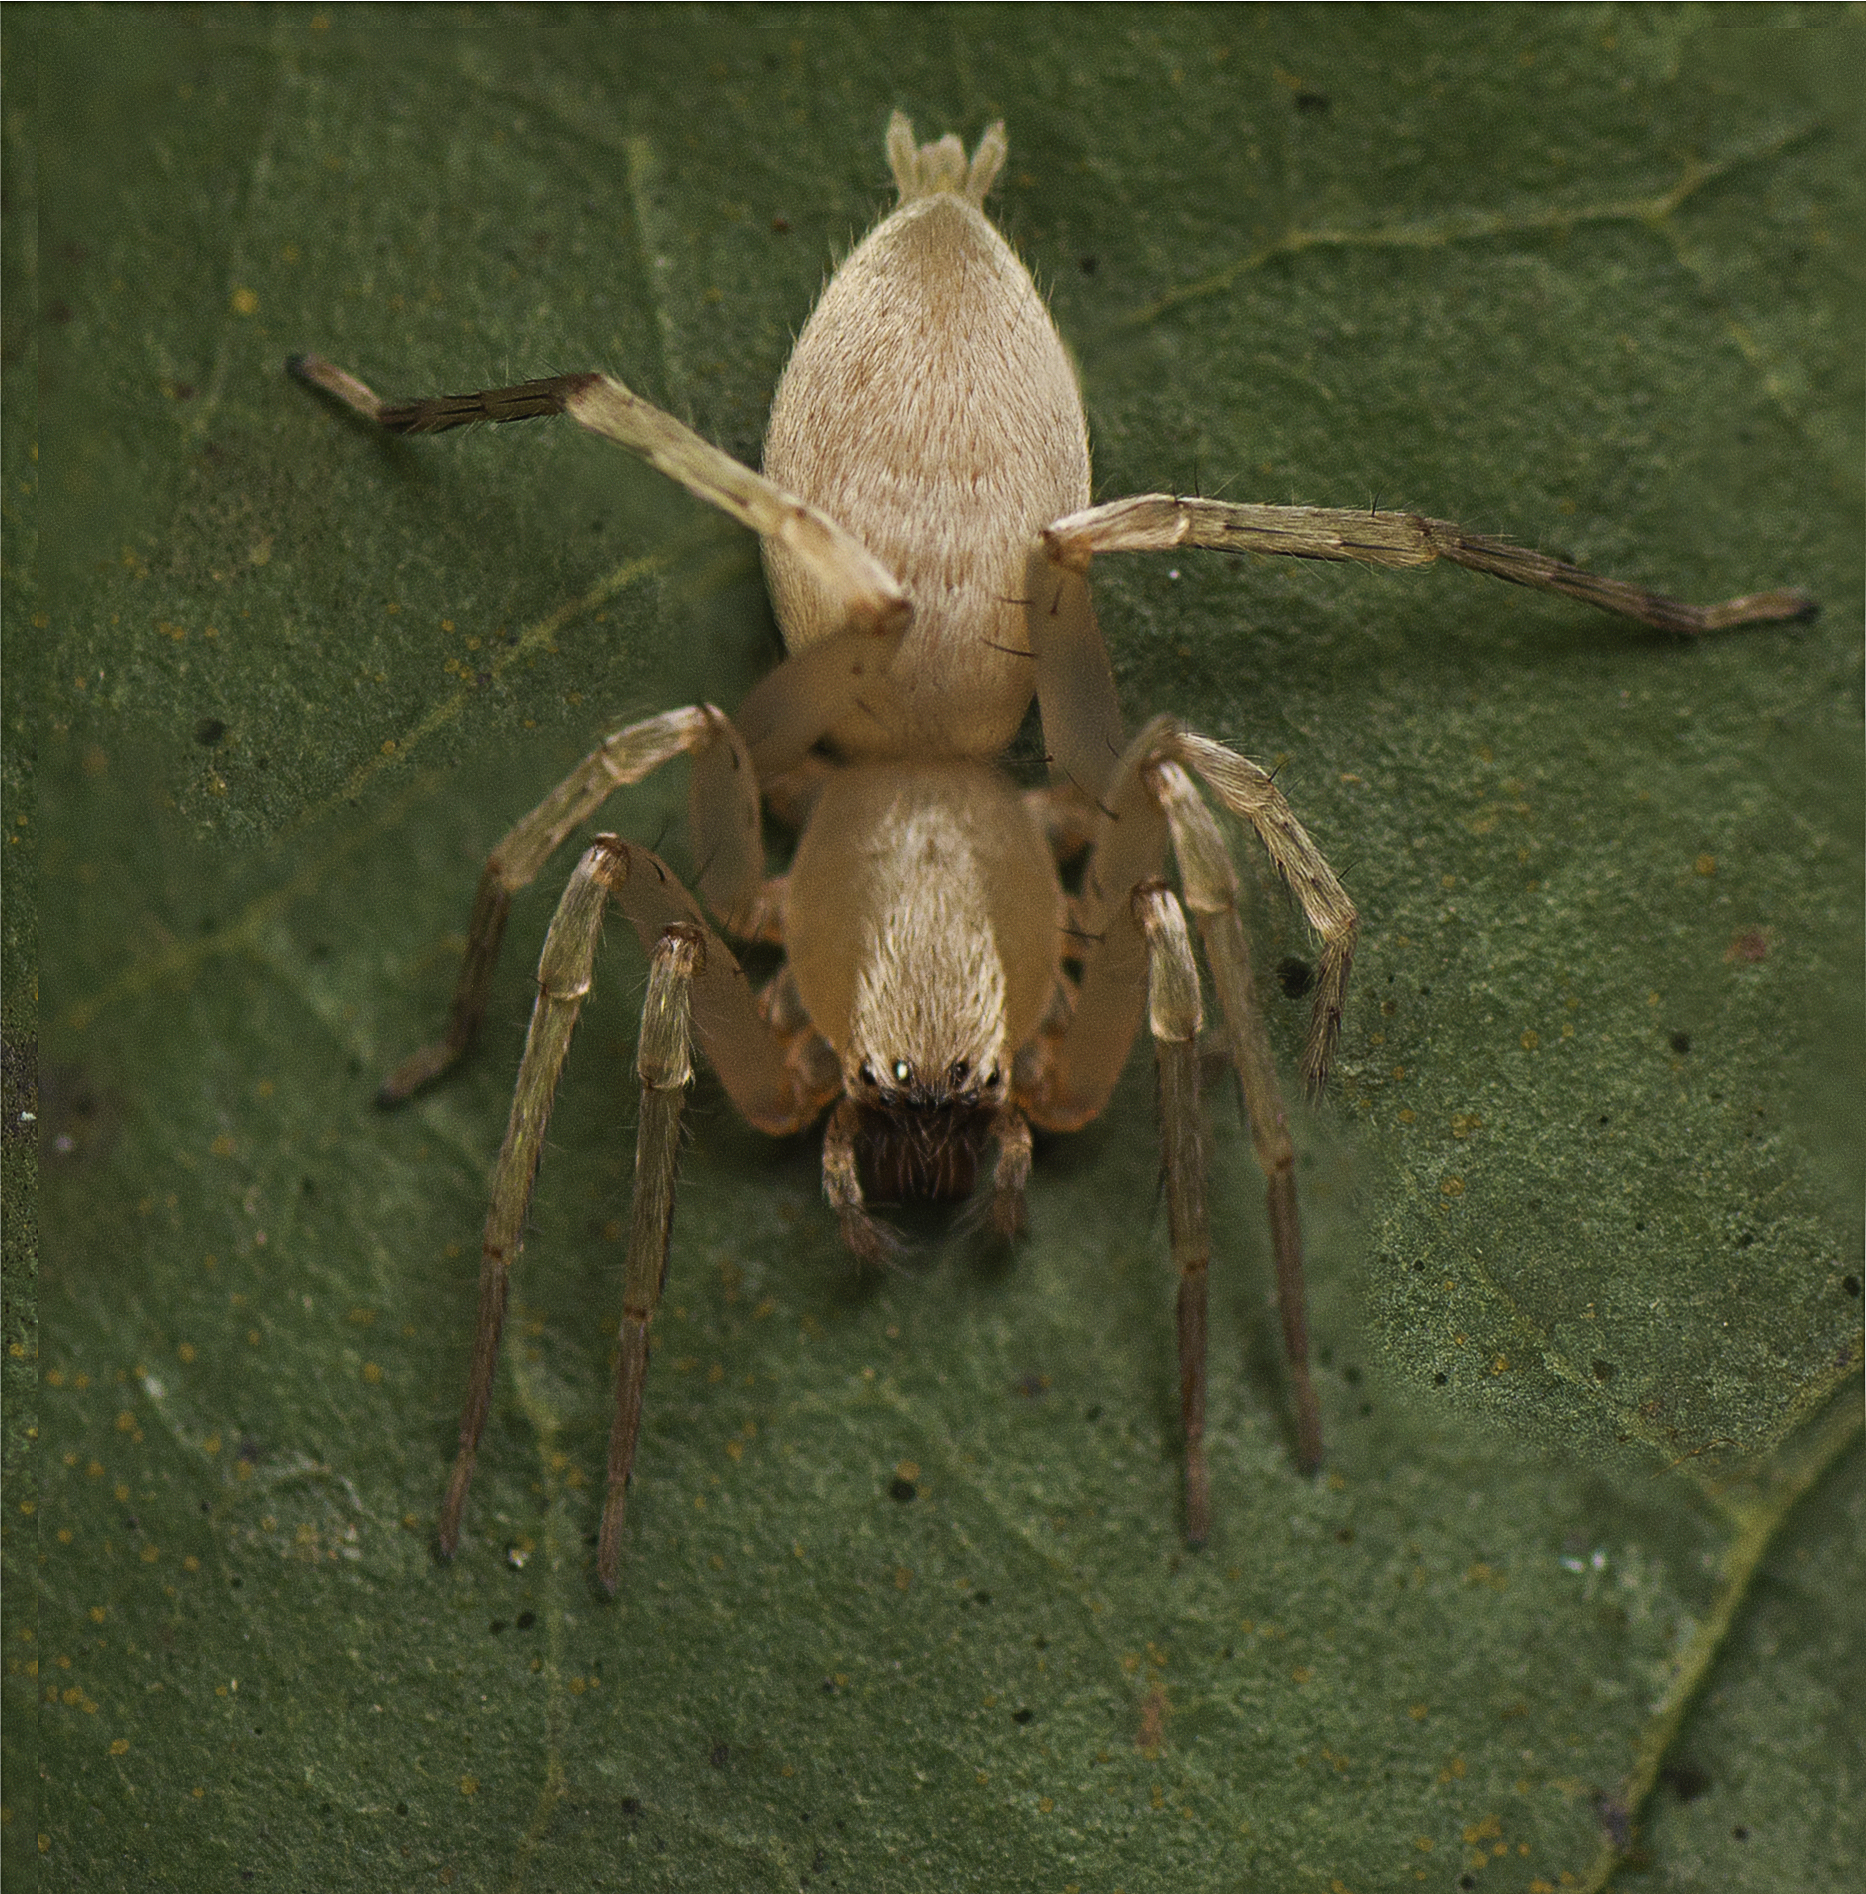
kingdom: Animalia
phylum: Arthropoda
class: Arachnida
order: Araneae
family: Clubionidae
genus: Clubiona
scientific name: Clubiona modesta
